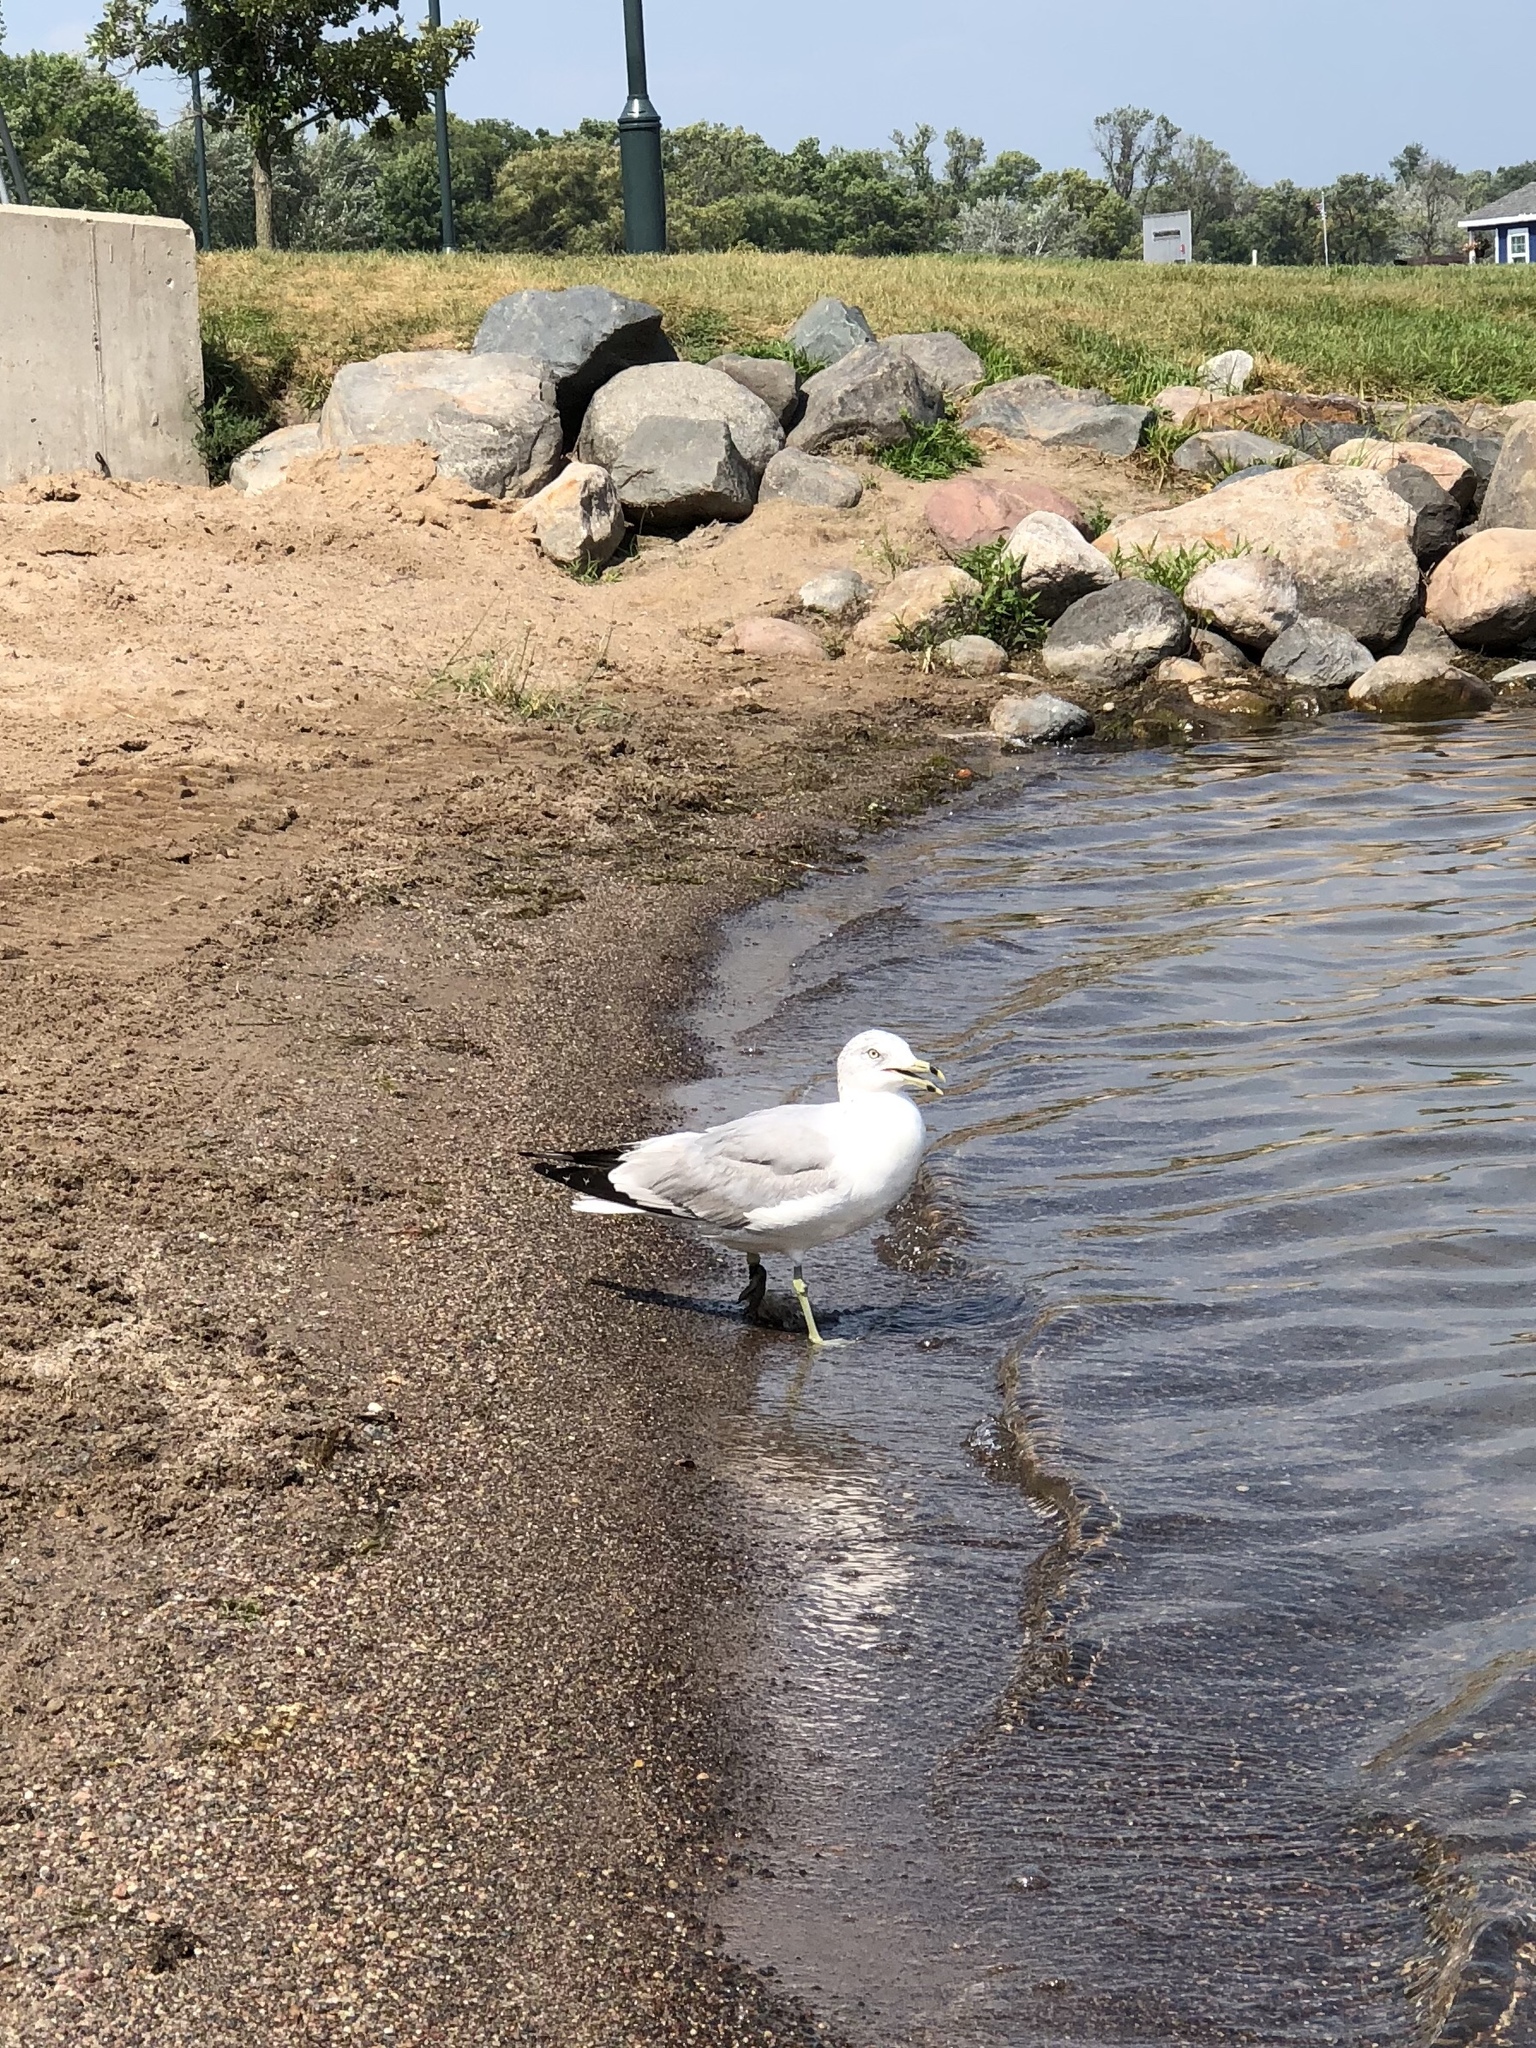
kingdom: Animalia
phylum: Chordata
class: Aves
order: Charadriiformes
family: Laridae
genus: Larus
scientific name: Larus delawarensis
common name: Ring-billed gull
